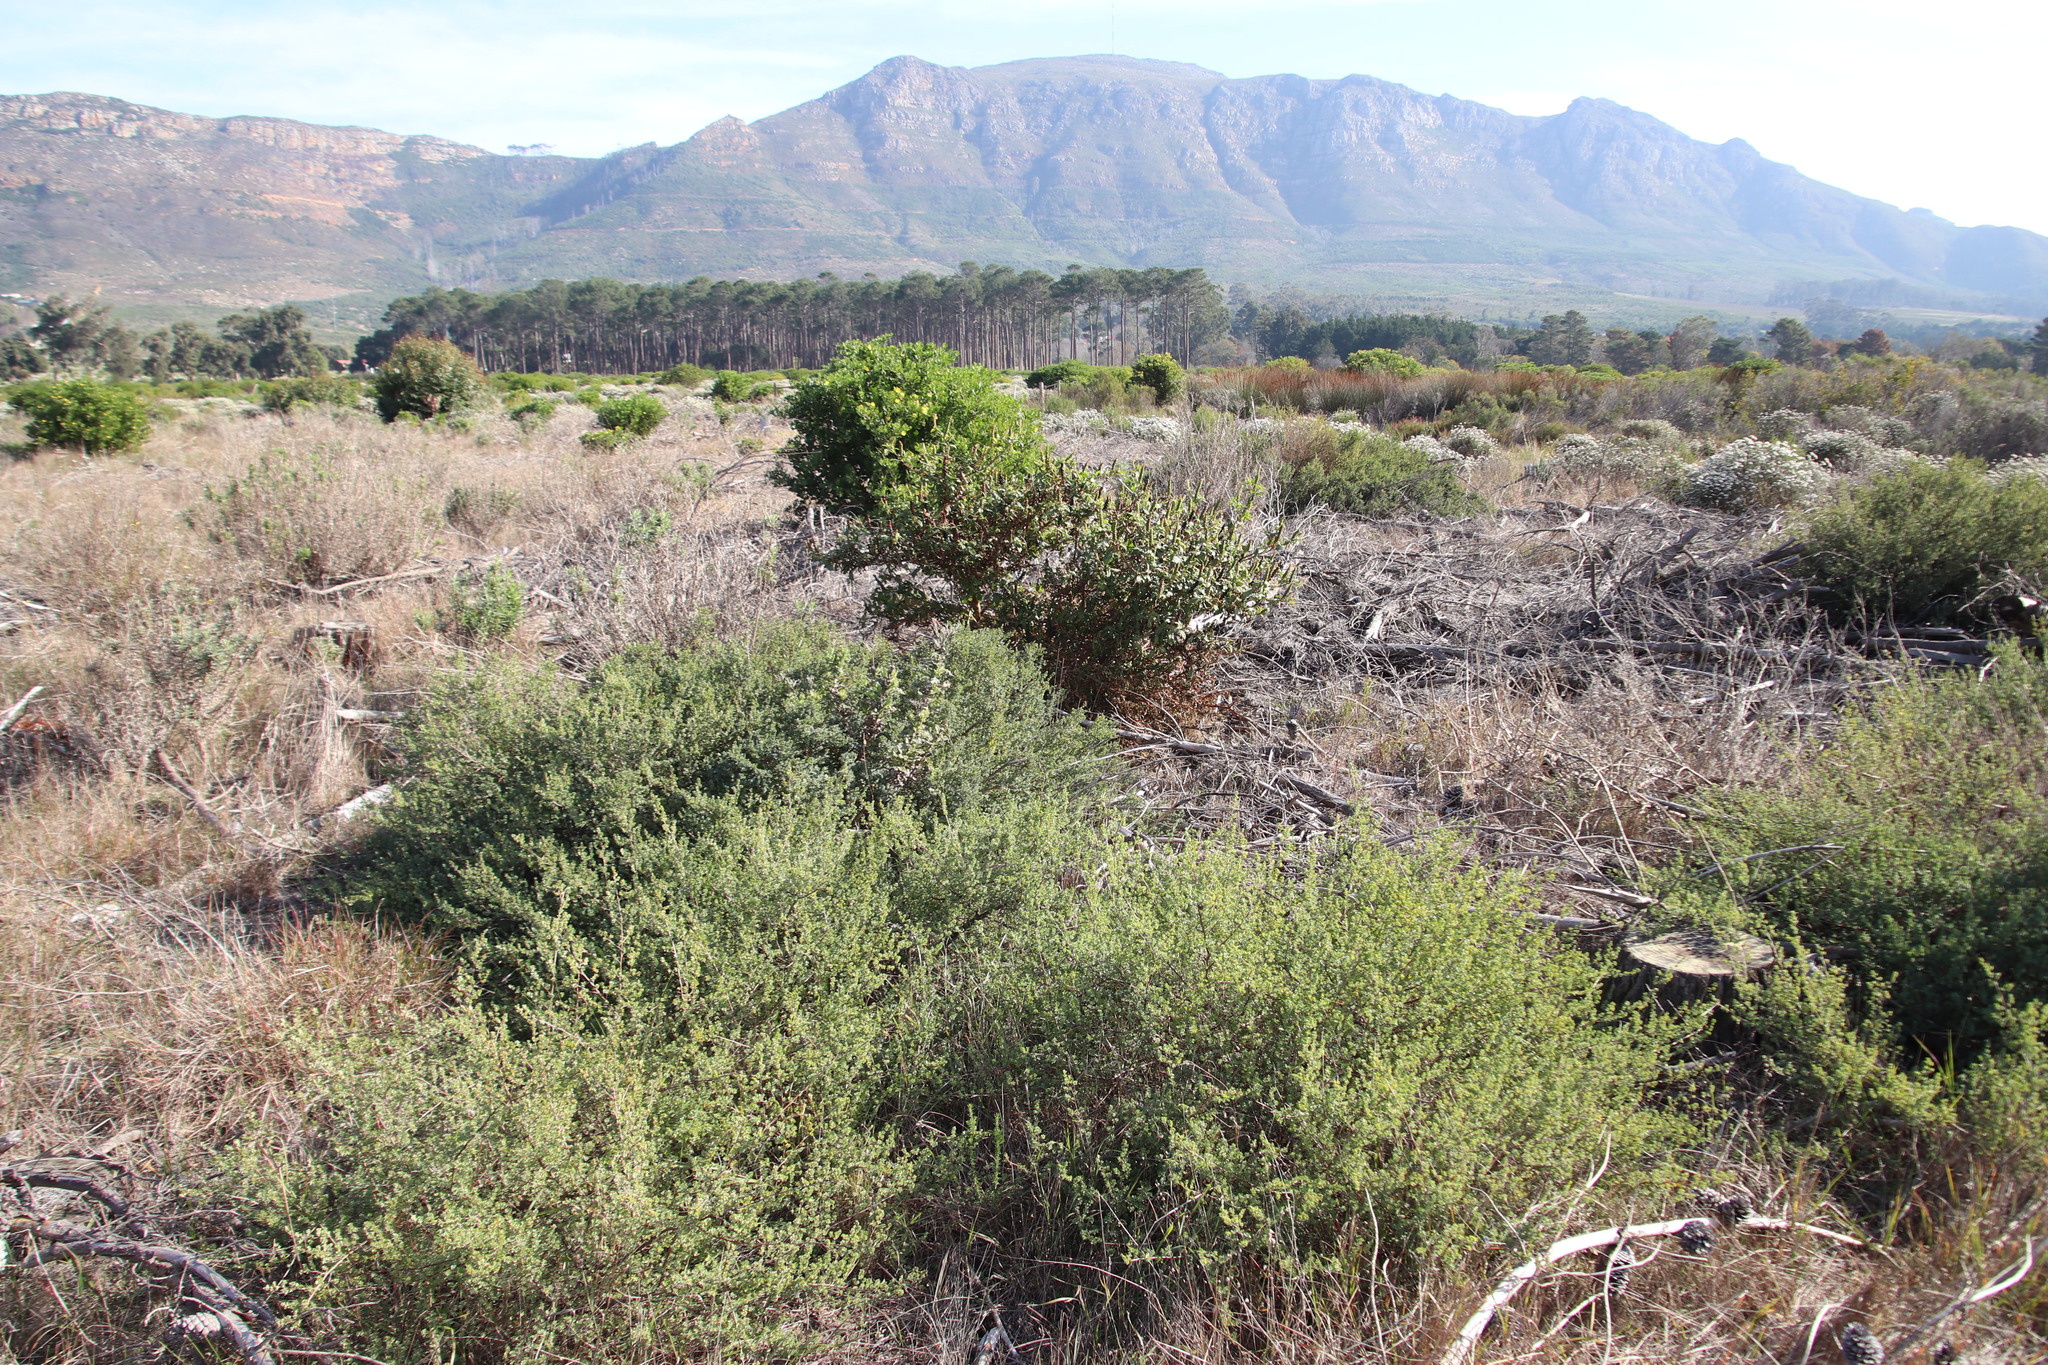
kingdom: Plantae
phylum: Tracheophyta
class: Magnoliopsida
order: Rosales
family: Rosaceae
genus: Cliffortia
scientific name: Cliffortia obcordata
